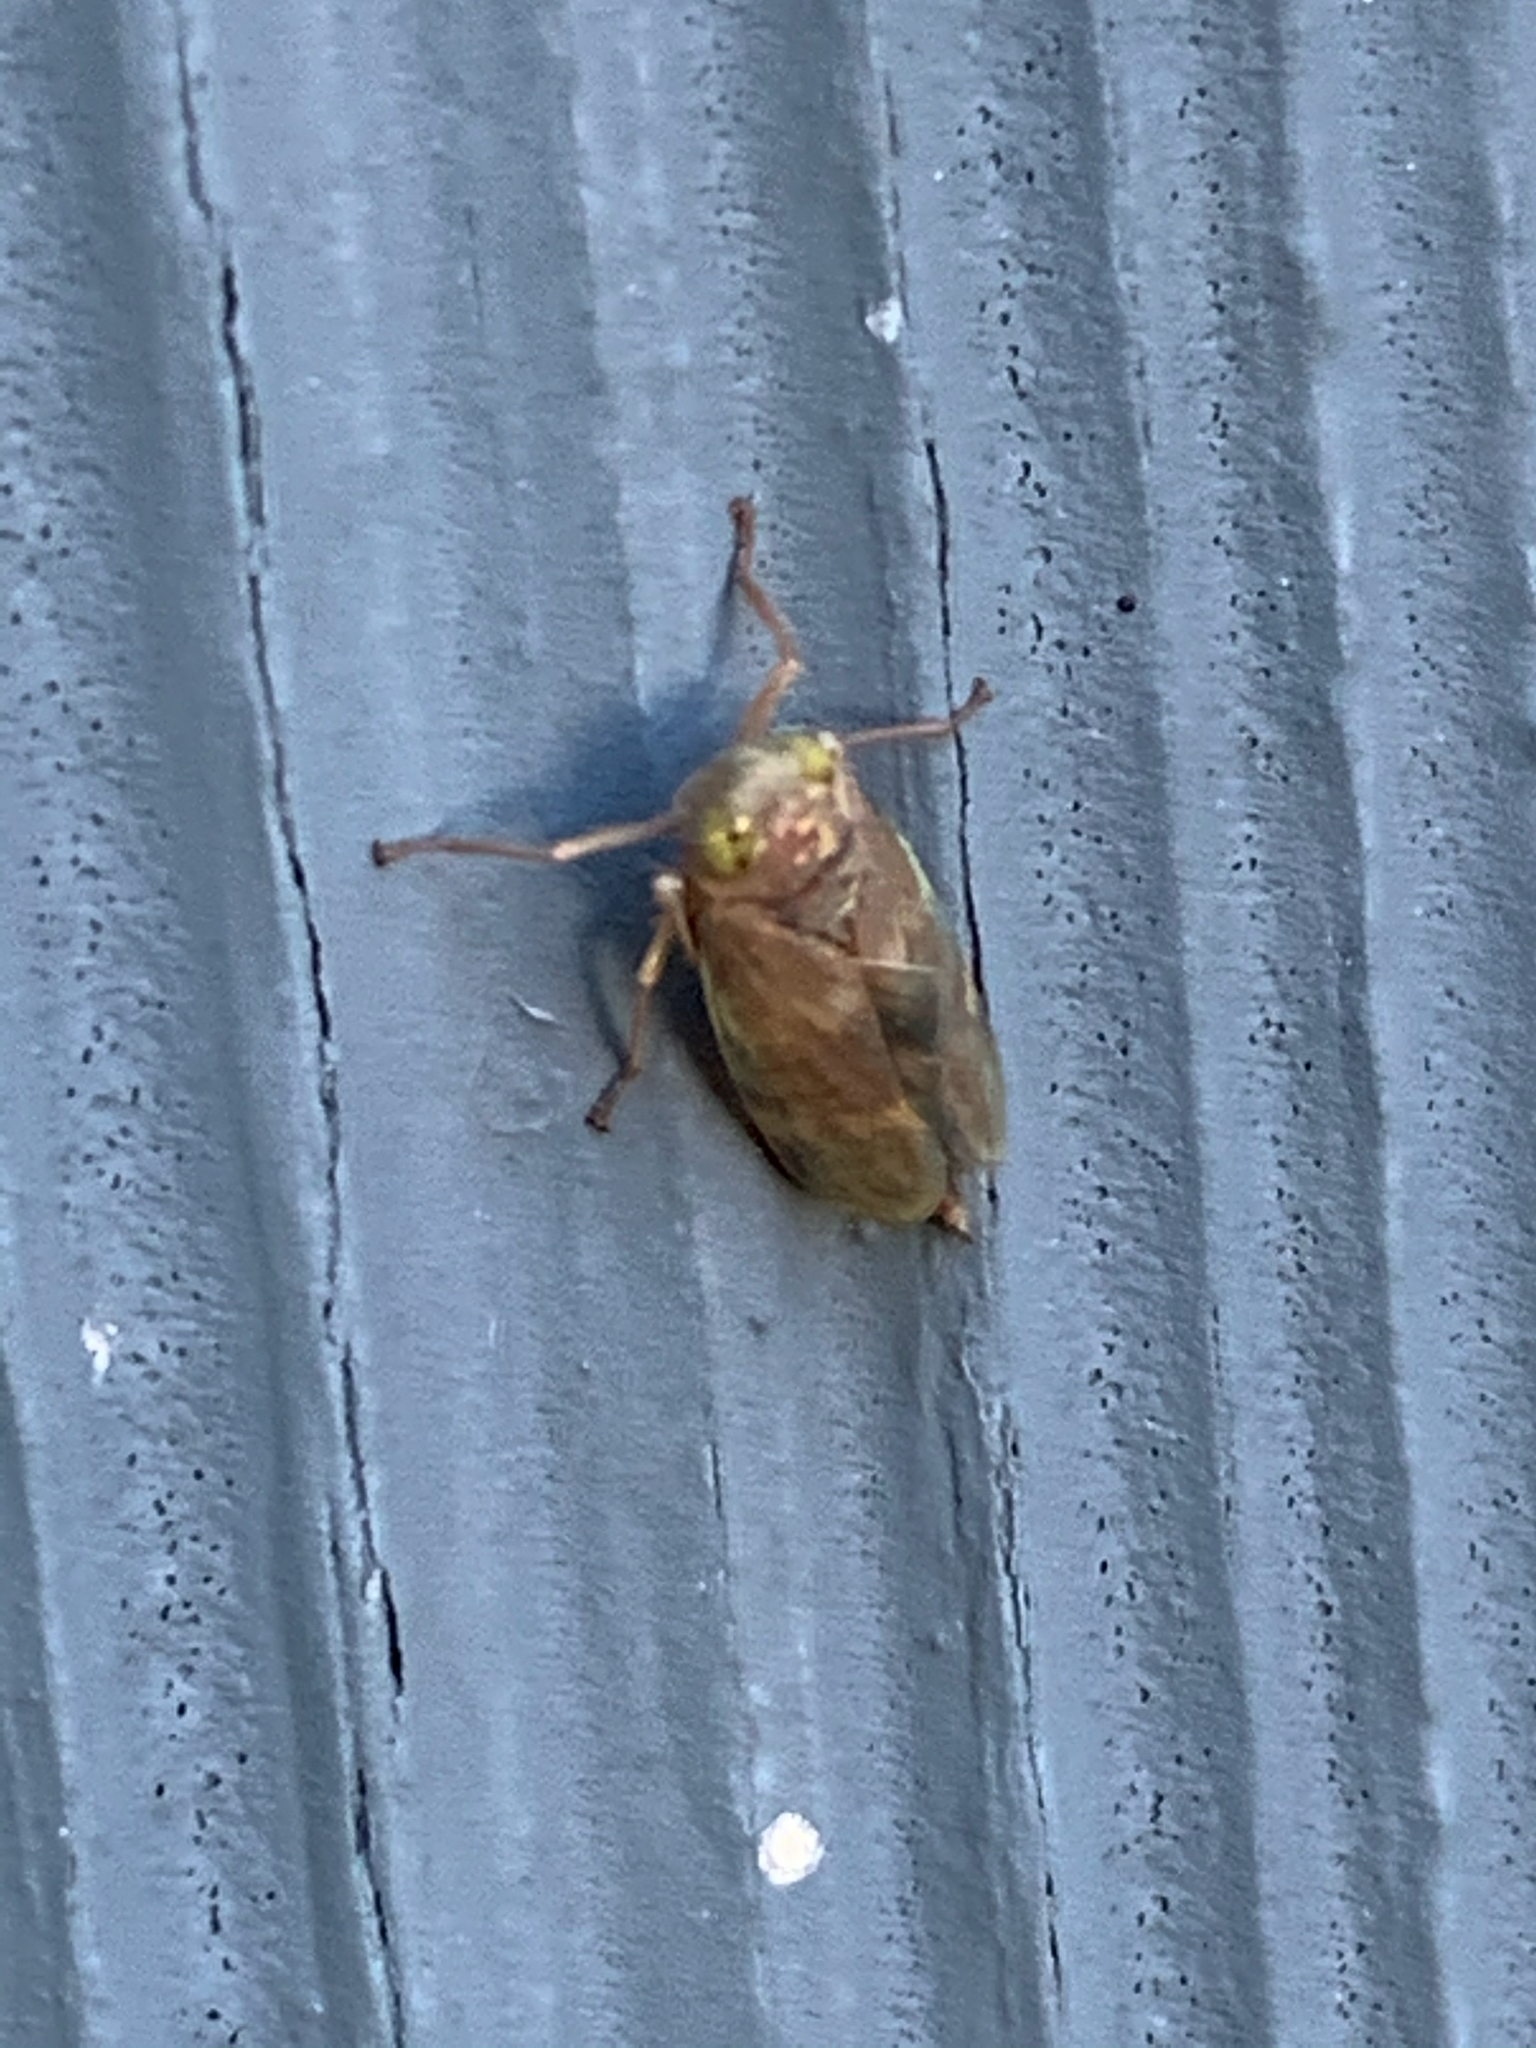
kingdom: Animalia
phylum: Arthropoda
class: Insecta
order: Hemiptera
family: Cicadellidae
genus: Jikradia
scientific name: Jikradia olitoria
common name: Coppery leafhopper
